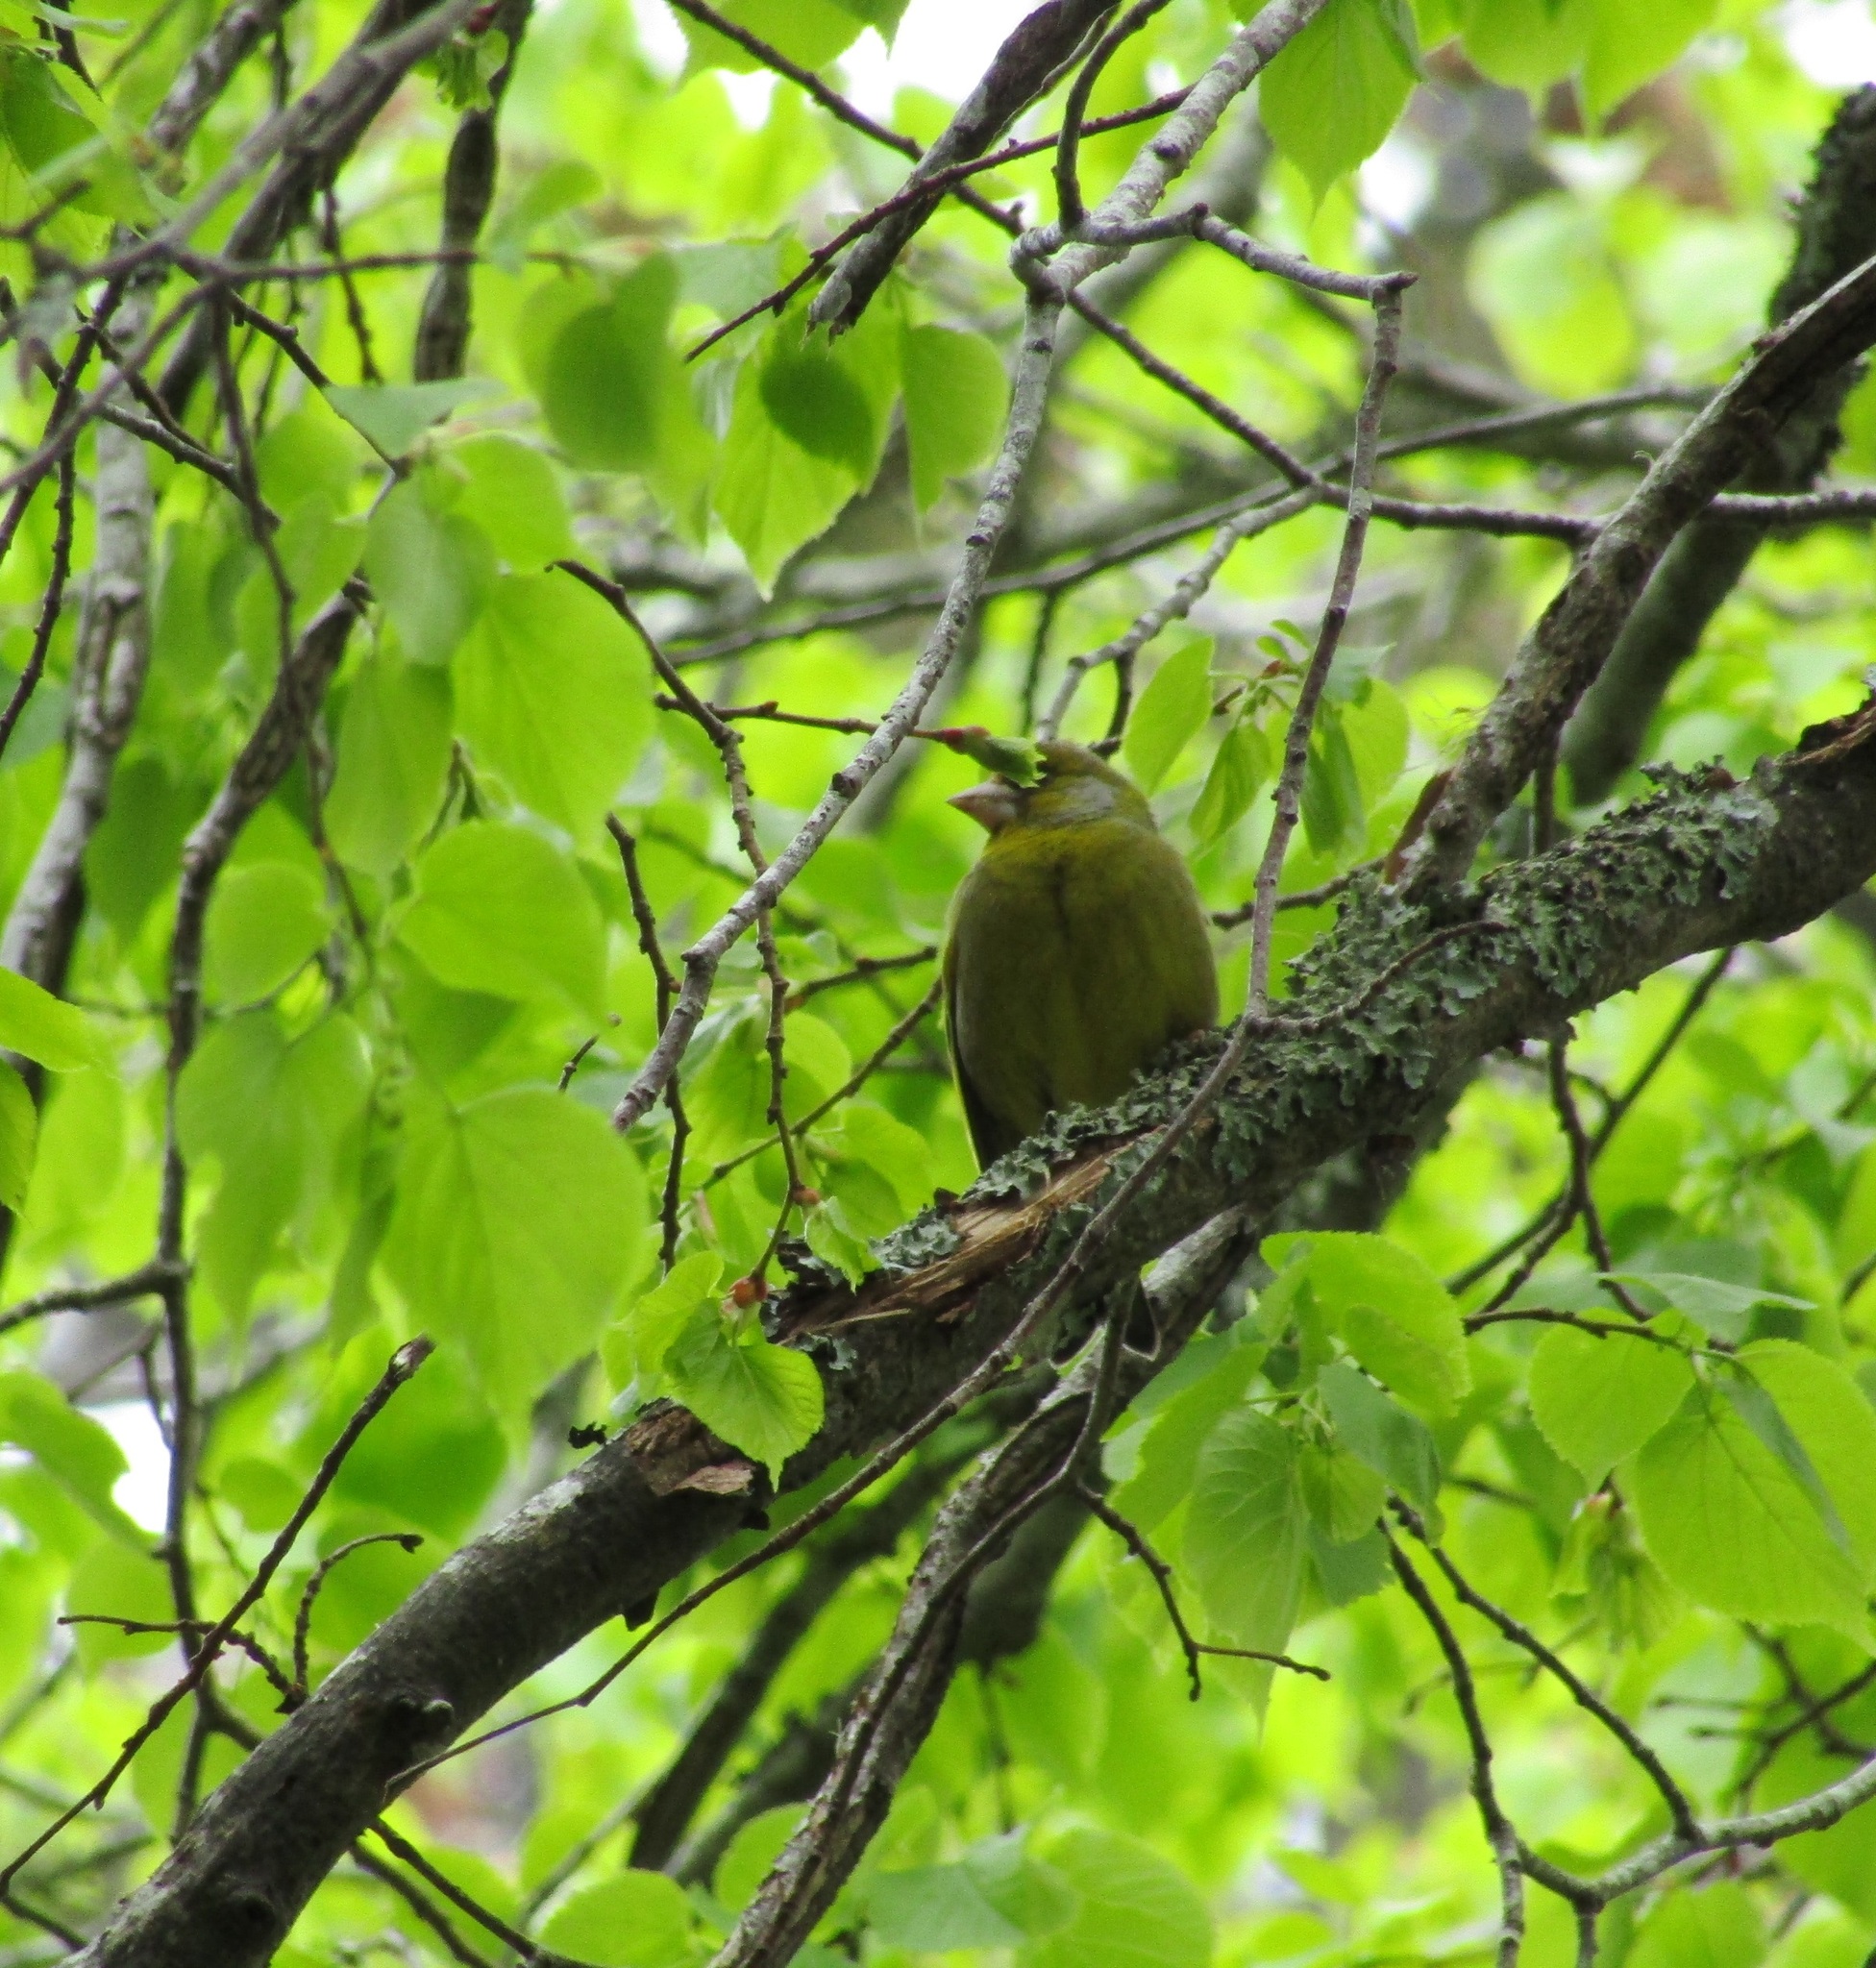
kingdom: Plantae
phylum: Tracheophyta
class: Liliopsida
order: Poales
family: Poaceae
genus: Chloris
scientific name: Chloris chloris
